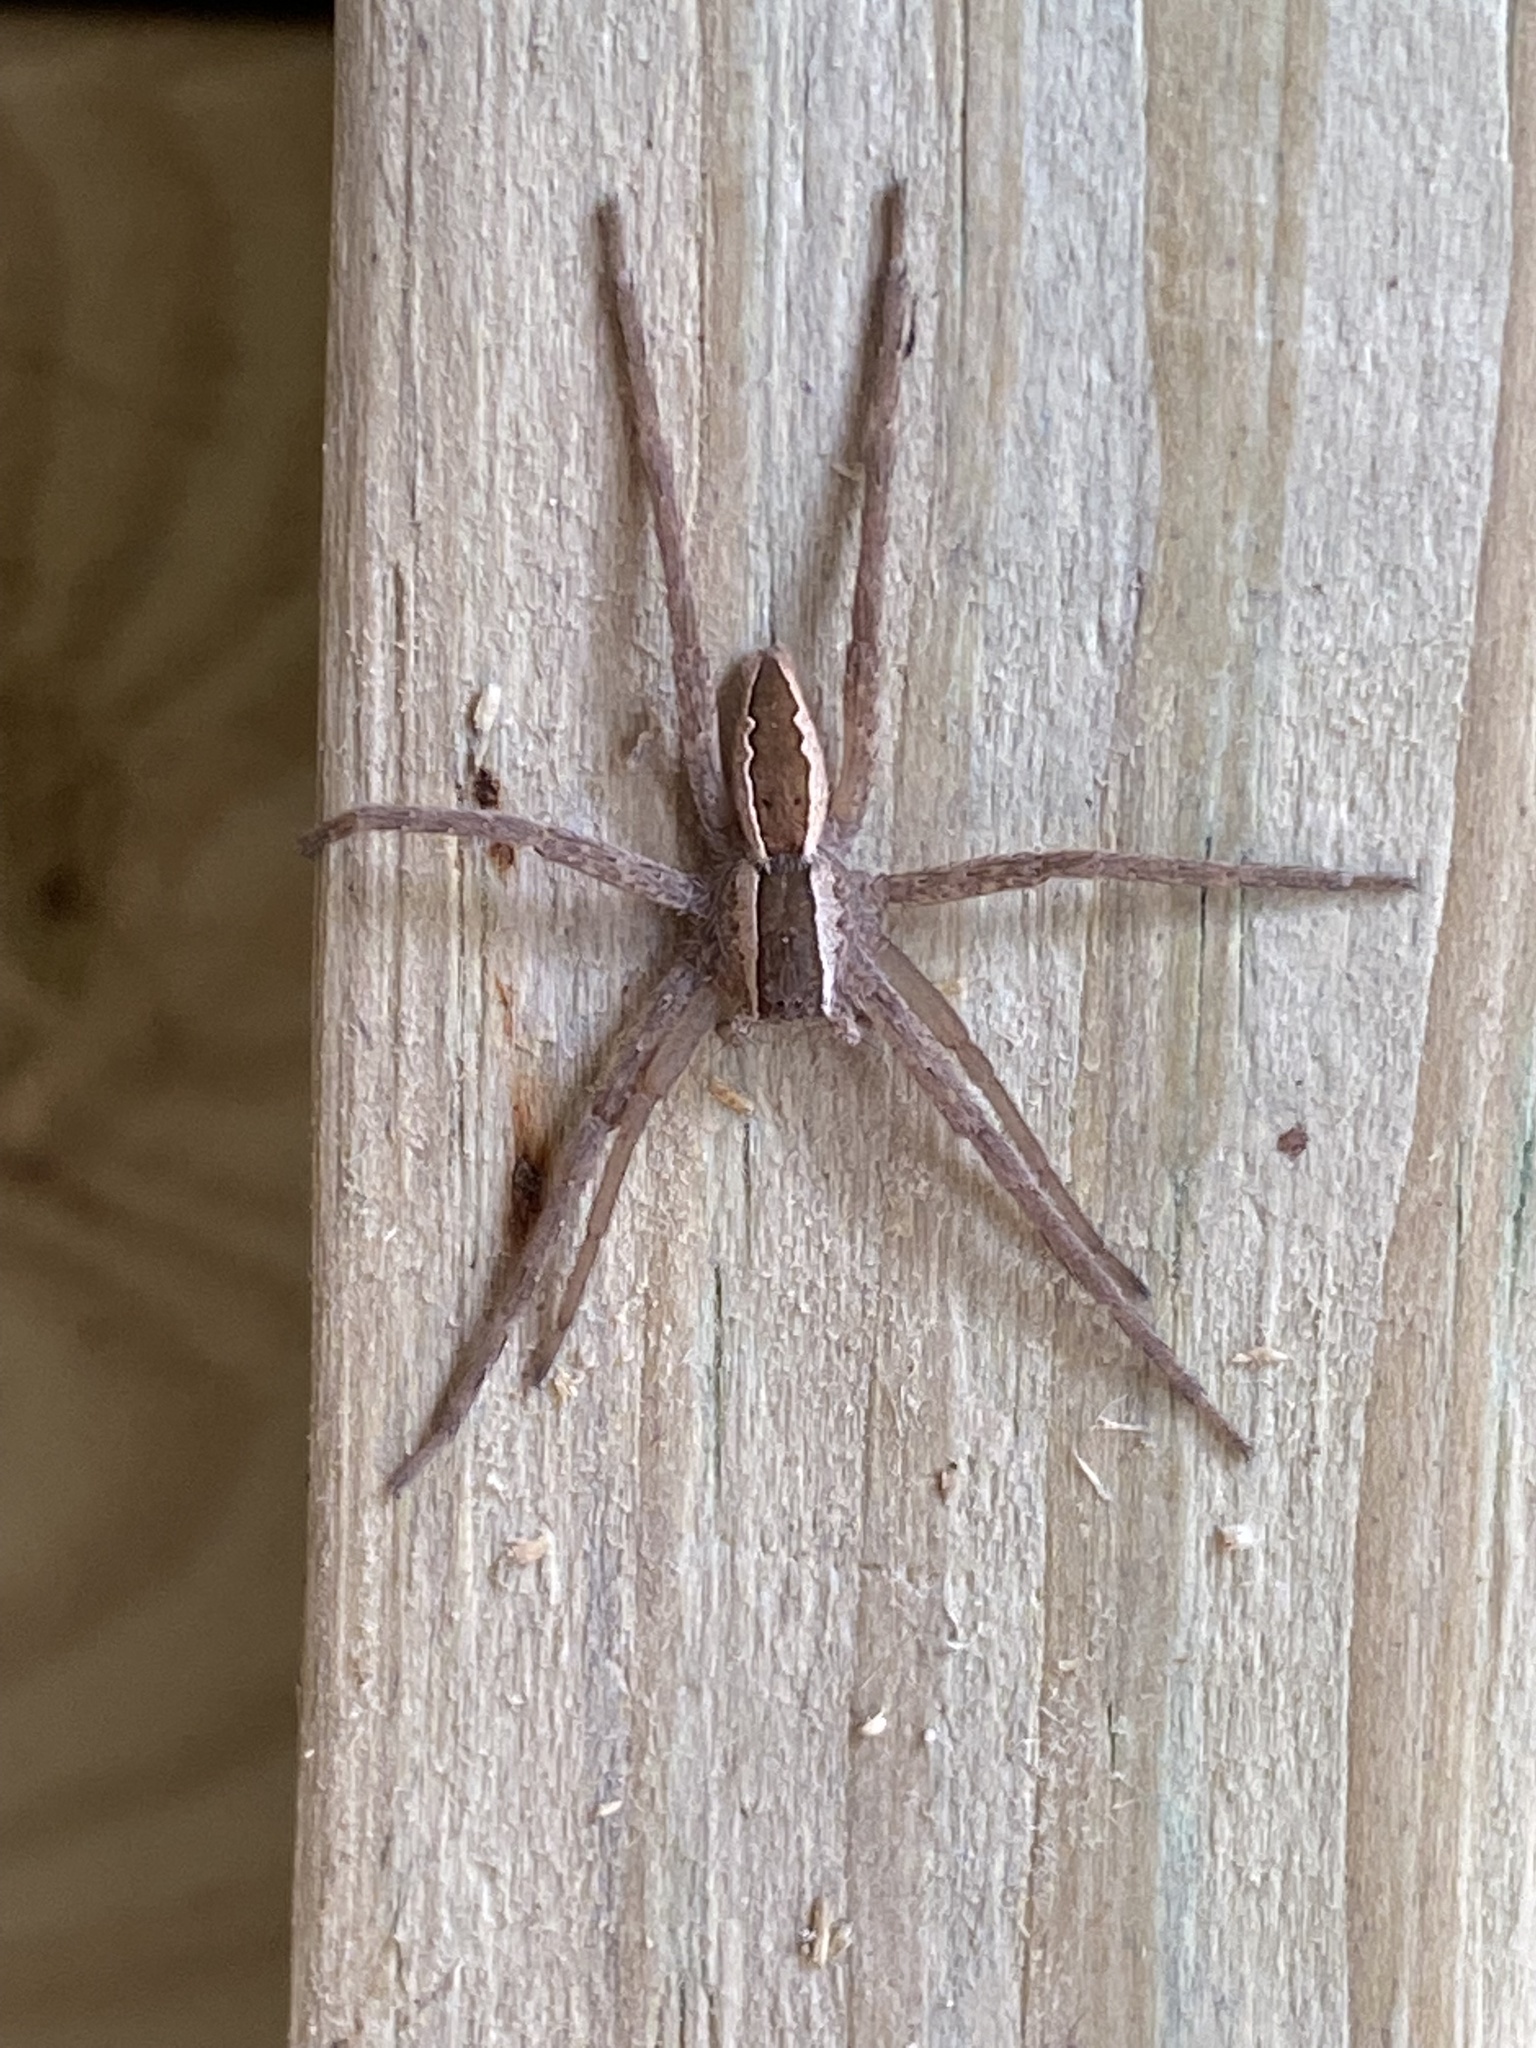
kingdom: Animalia
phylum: Arthropoda
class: Arachnida
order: Araneae
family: Pisauridae
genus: Pisaurina
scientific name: Pisaurina mira
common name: American nursery web spider
